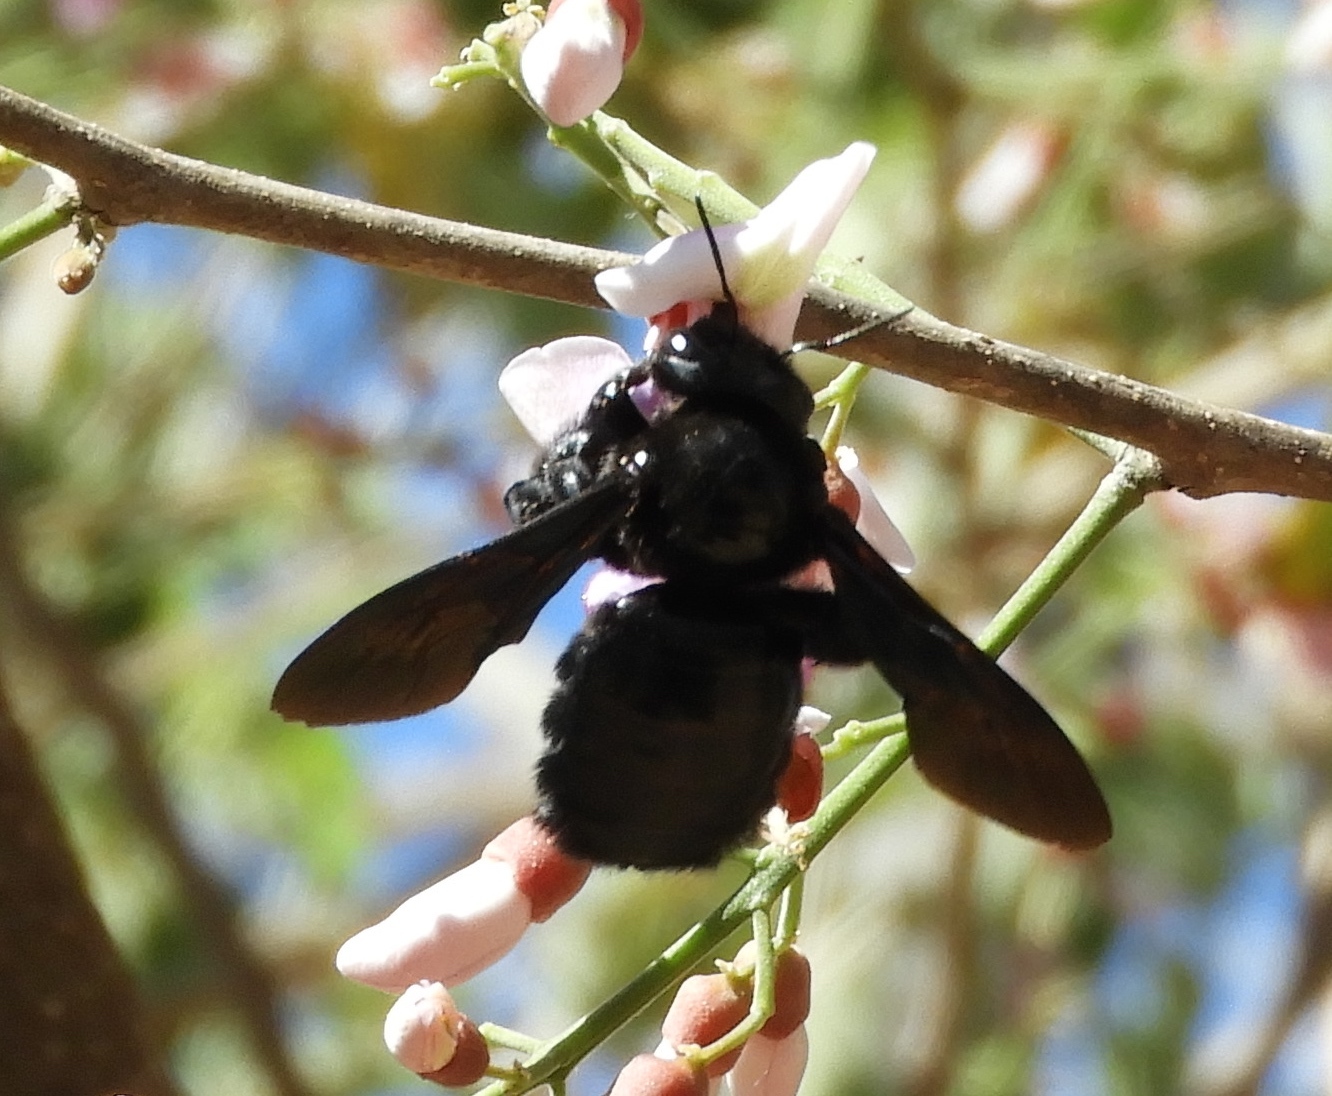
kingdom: Animalia
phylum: Arthropoda
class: Insecta
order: Hymenoptera
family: Apidae
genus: Xylocopa
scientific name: Xylocopa
